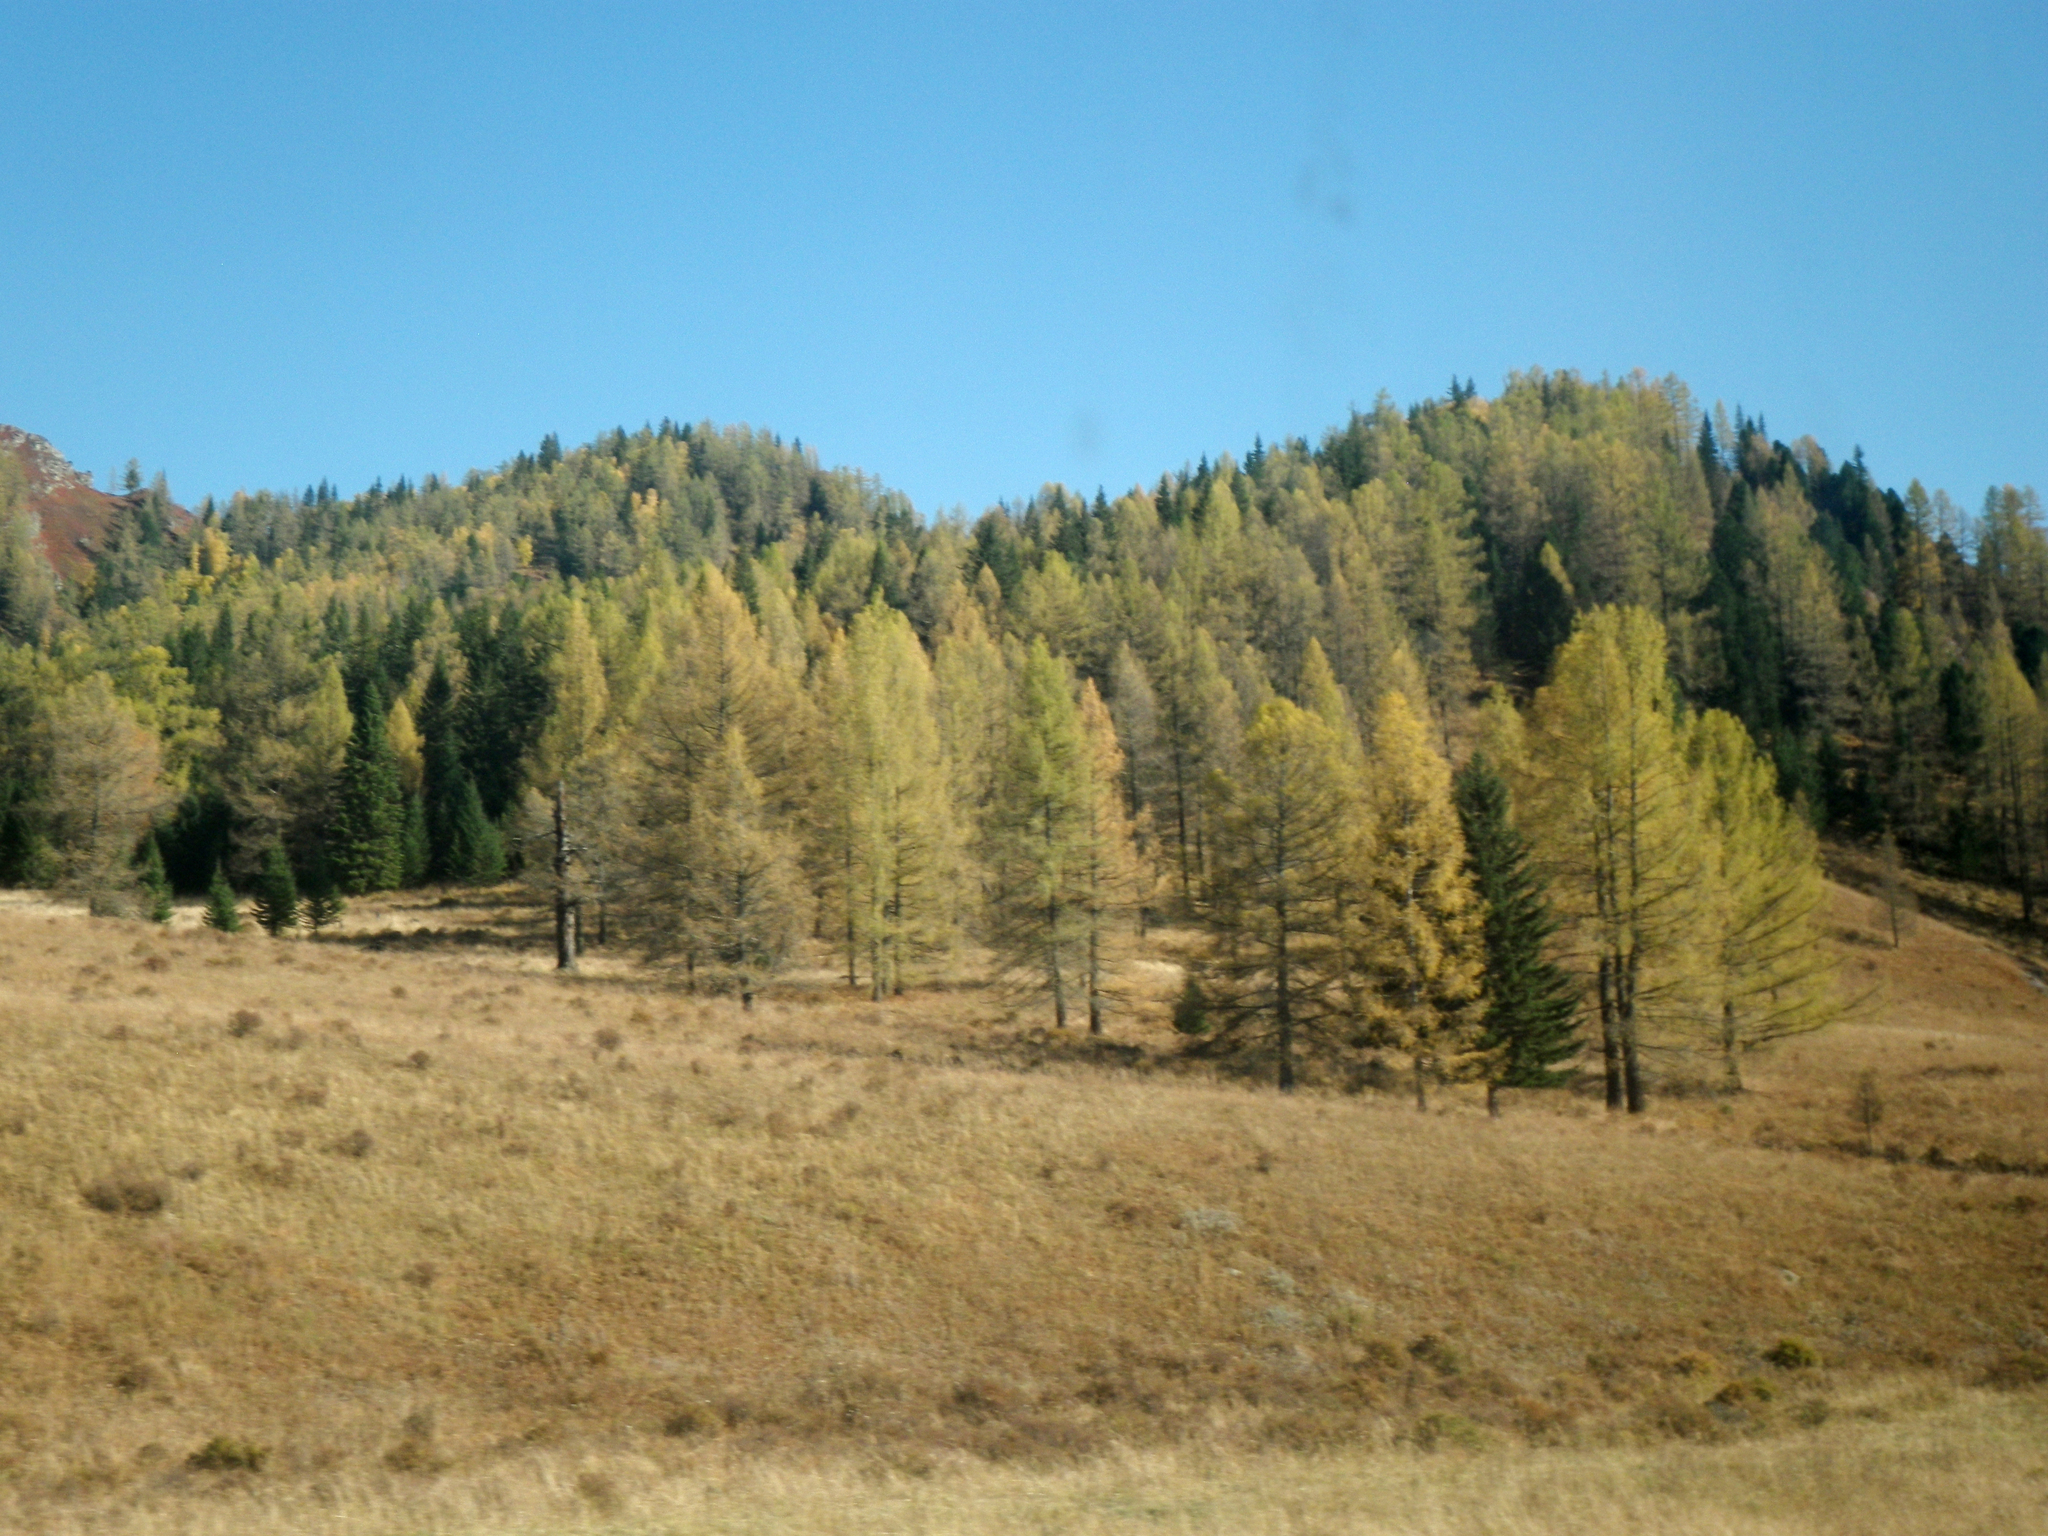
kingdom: Plantae
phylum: Tracheophyta
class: Pinopsida
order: Pinales
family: Pinaceae
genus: Pinus
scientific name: Pinus sibirica
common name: Siberian pine
